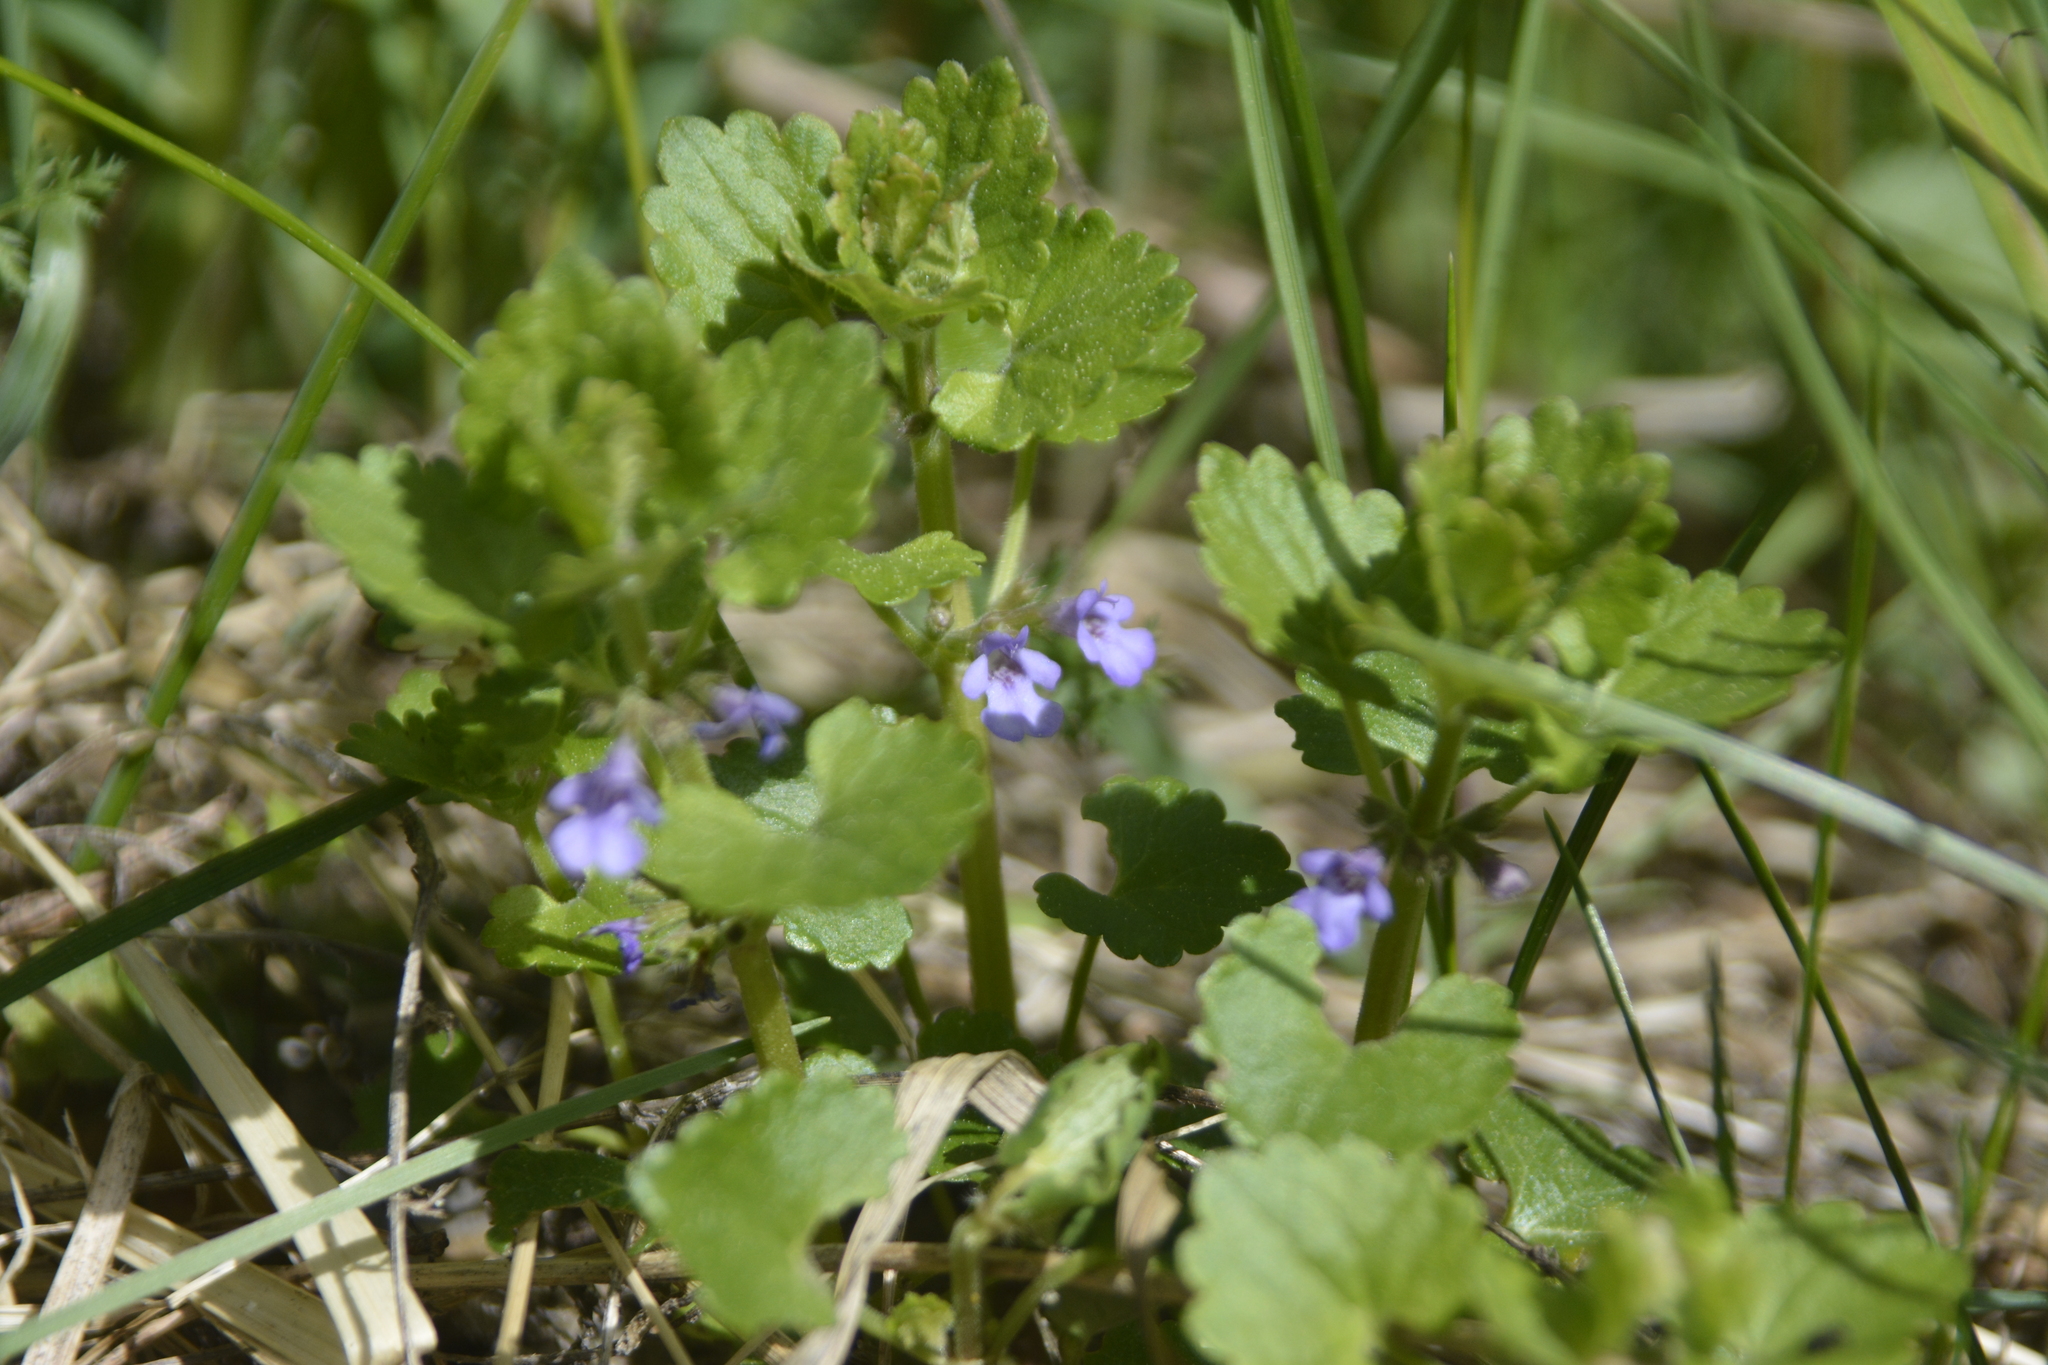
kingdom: Plantae
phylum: Tracheophyta
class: Magnoliopsida
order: Lamiales
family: Lamiaceae
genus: Glechoma
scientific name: Glechoma hederacea
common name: Ground ivy
